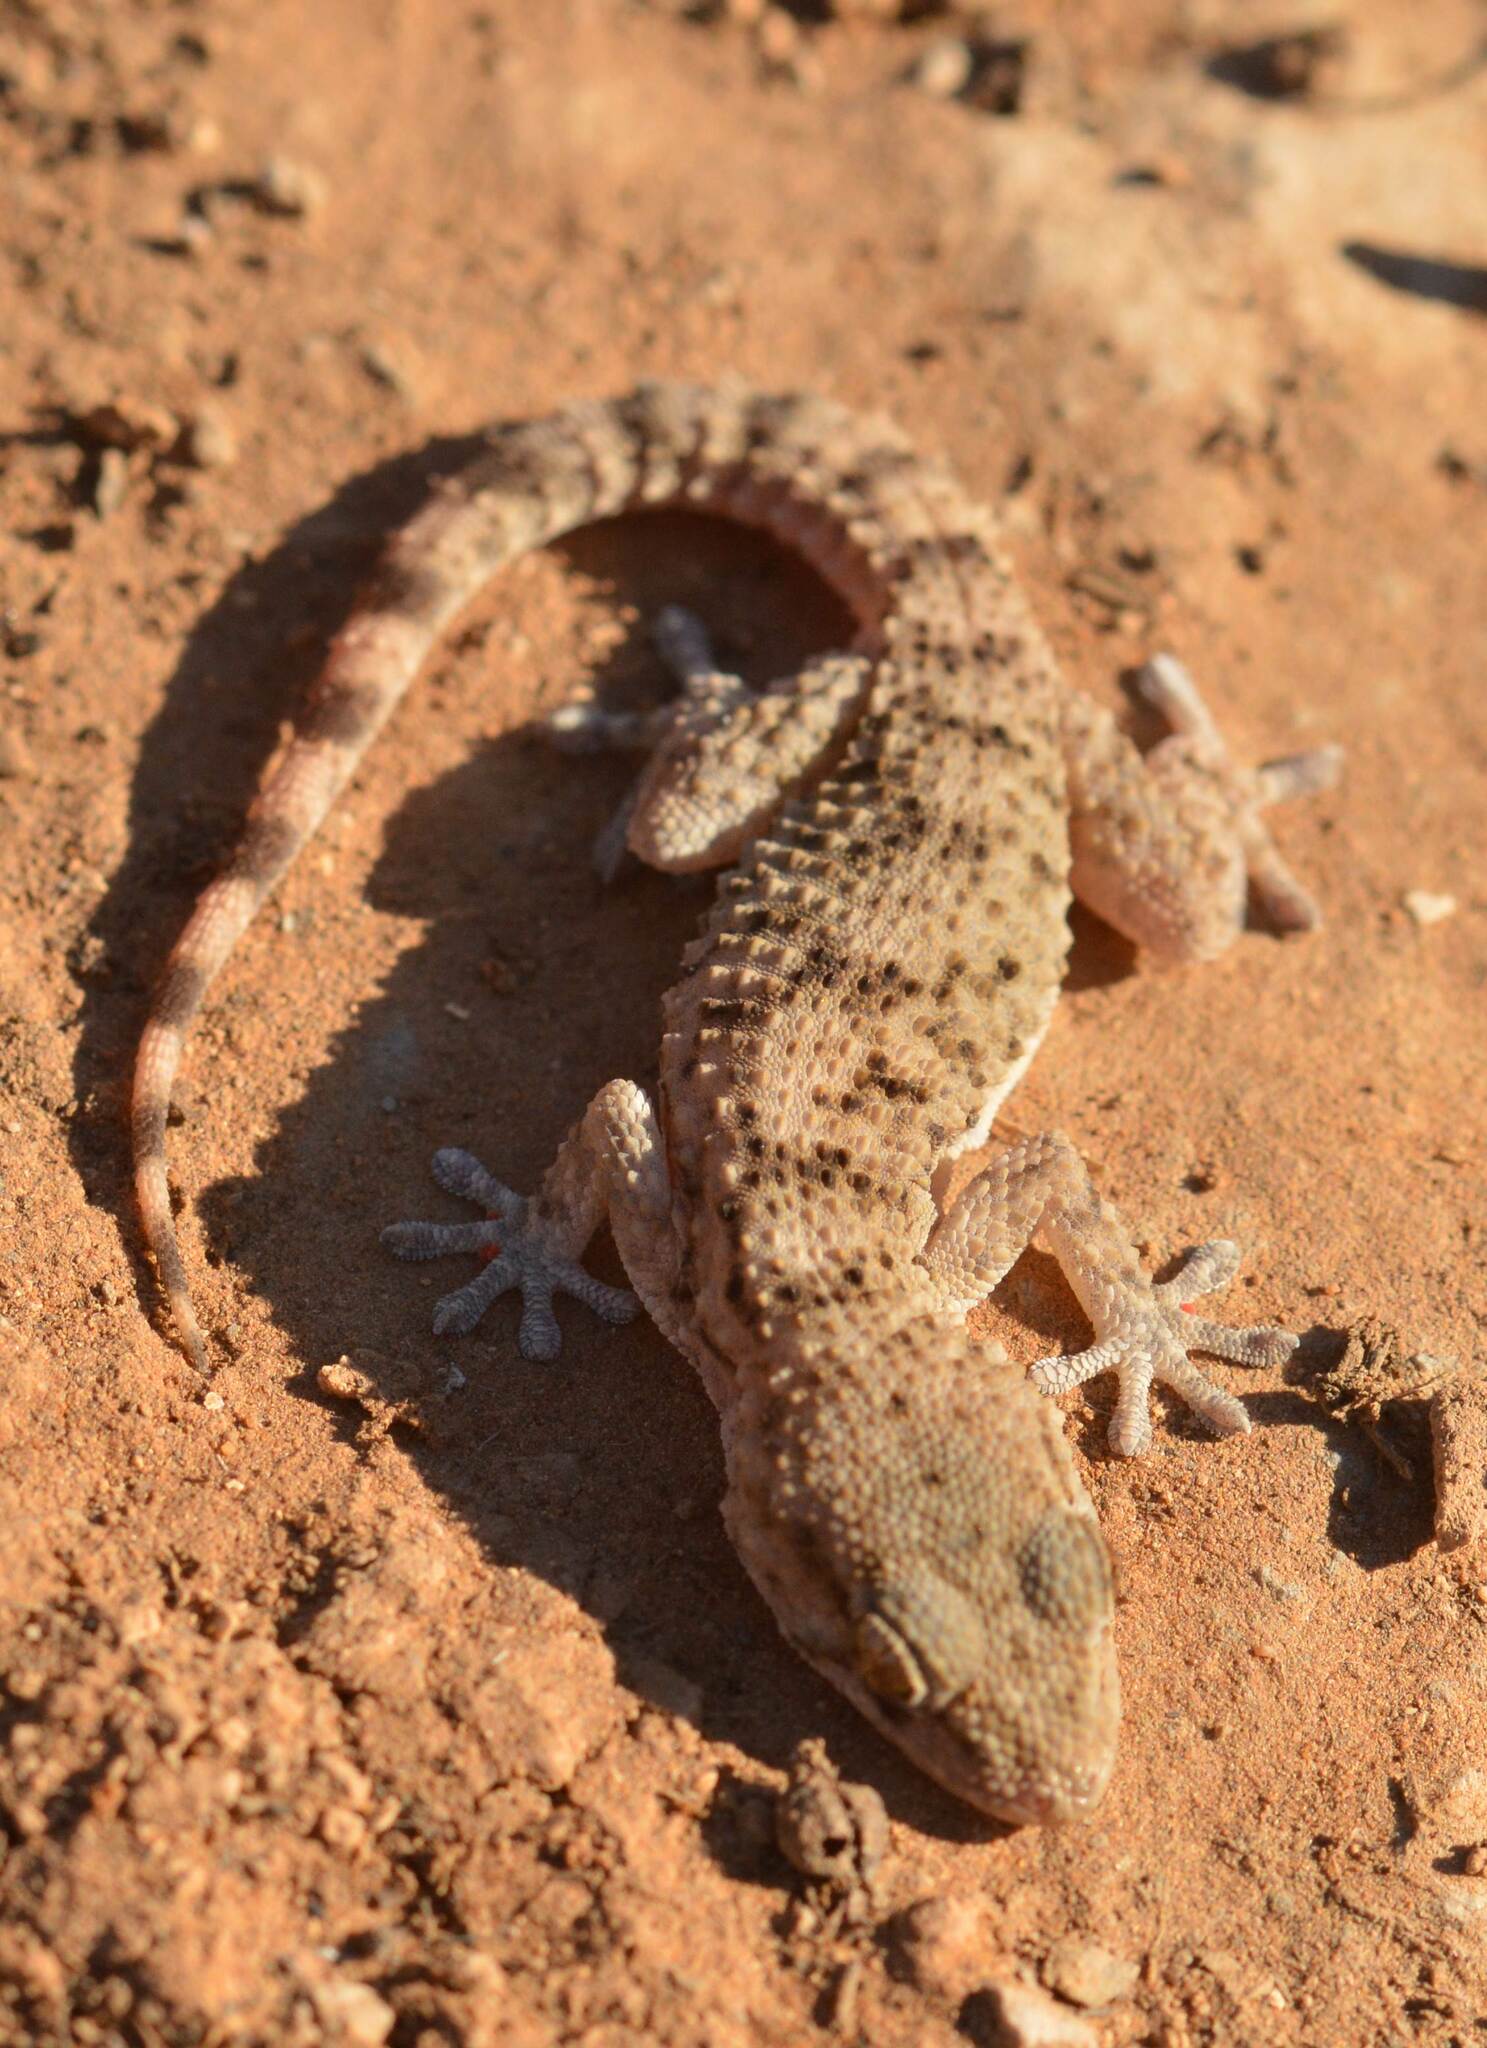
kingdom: Animalia
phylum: Chordata
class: Squamata
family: Phyllodactylidae
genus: Tarentola
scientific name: Tarentola mauritanica
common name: Moorish gecko
